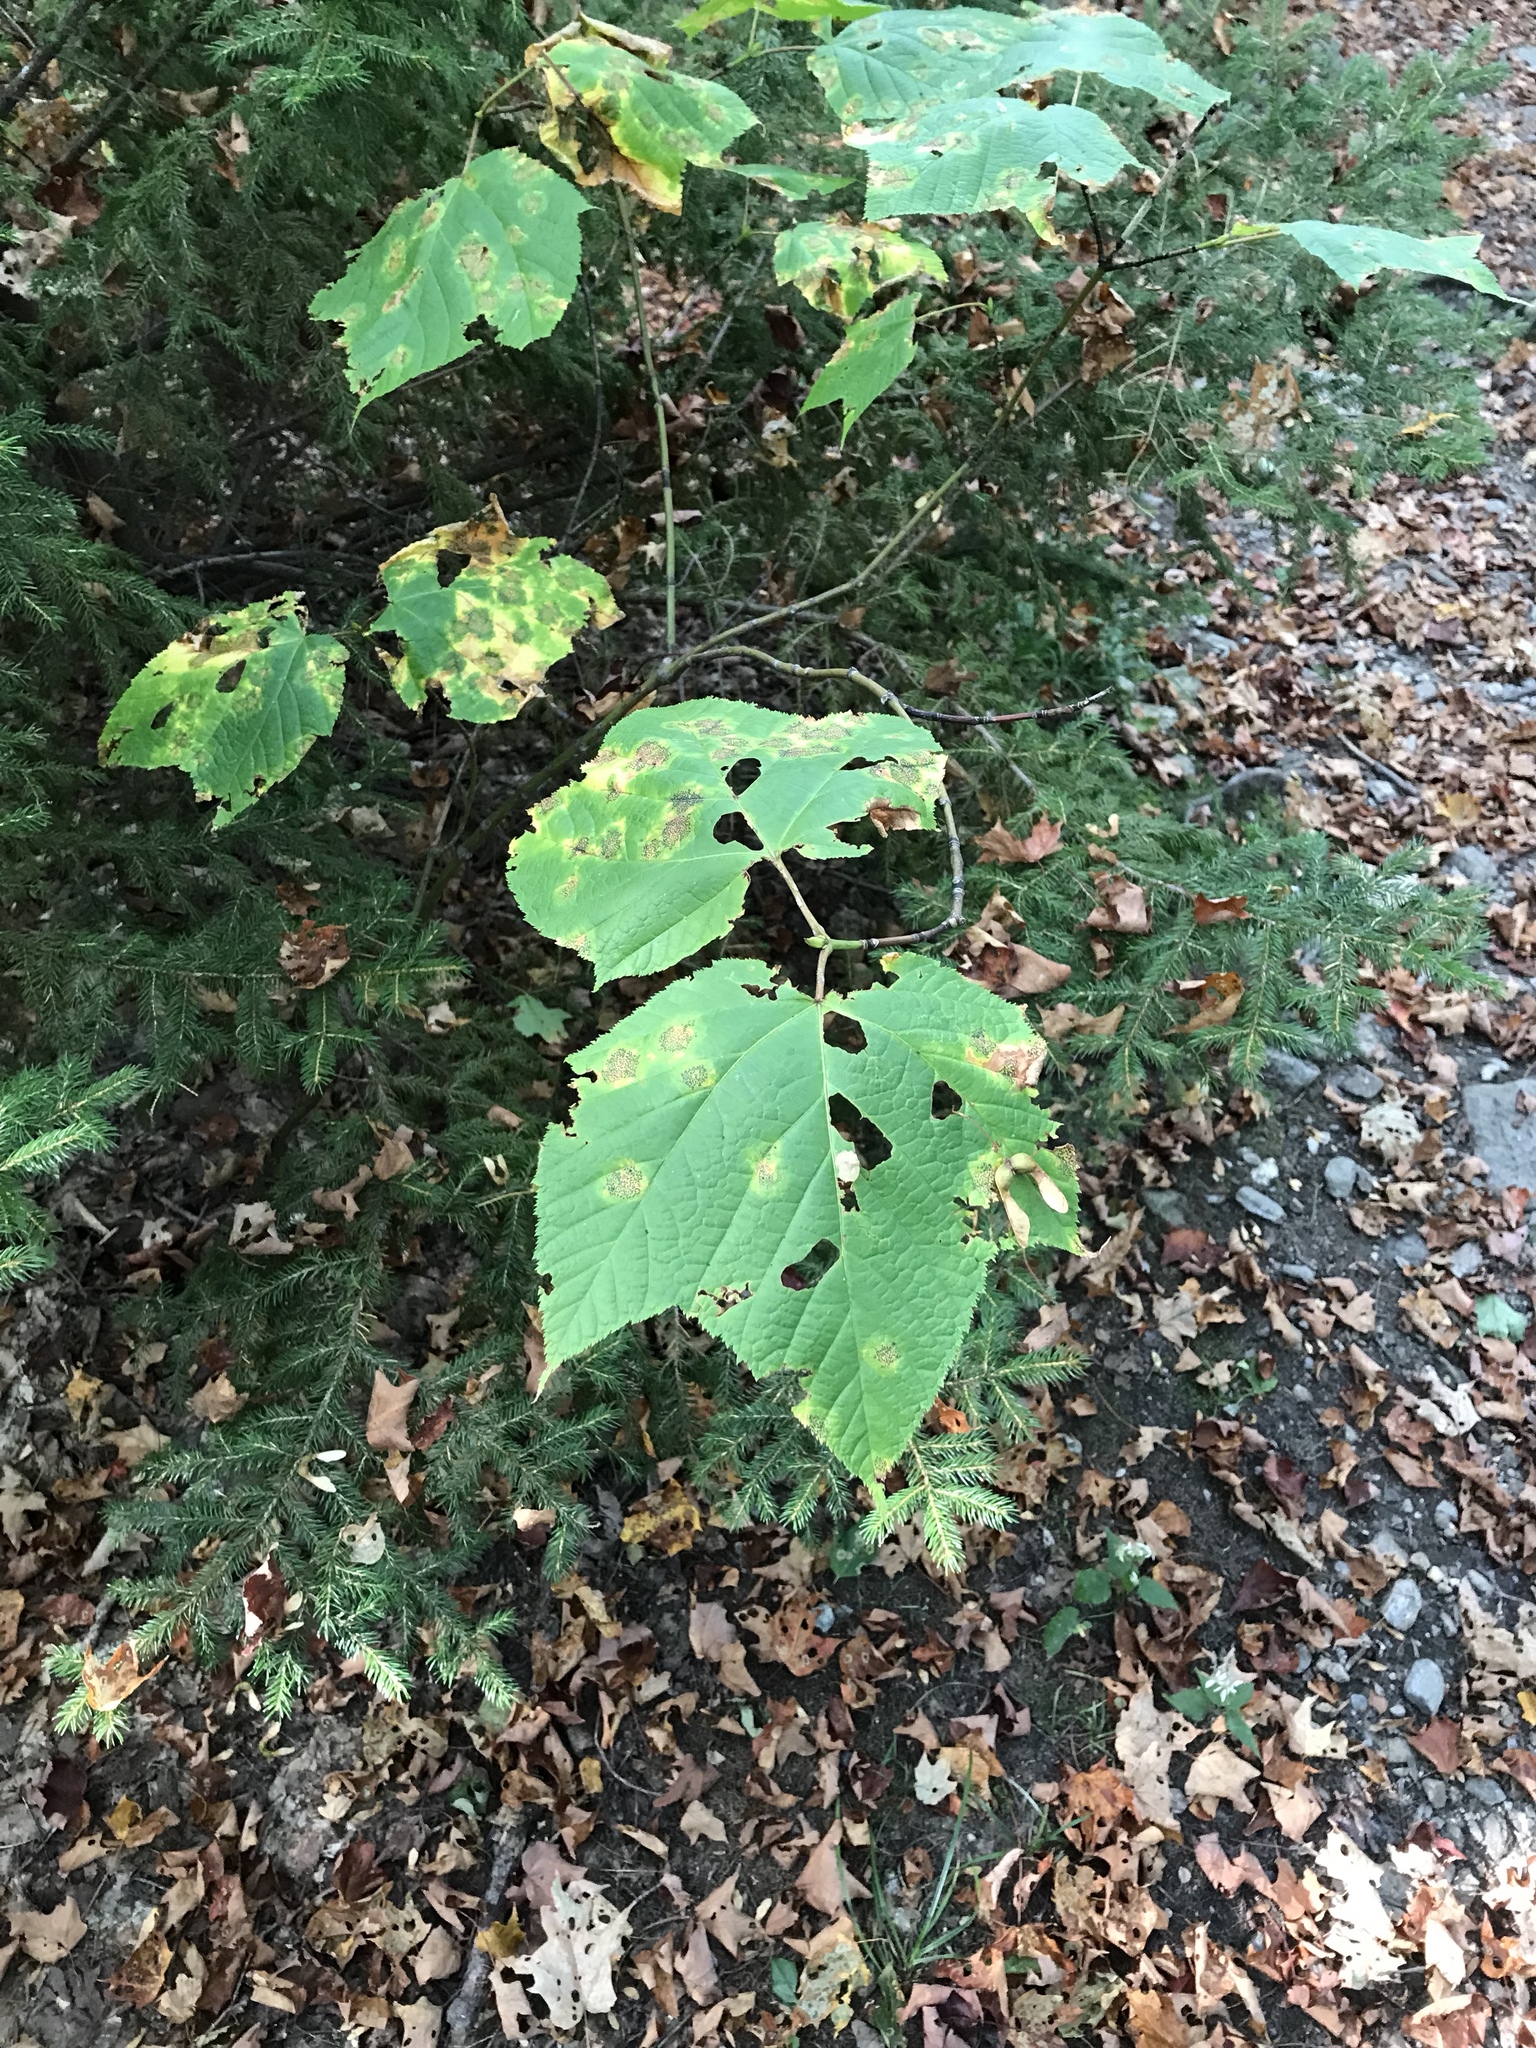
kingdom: Plantae
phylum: Tracheophyta
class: Magnoliopsida
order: Sapindales
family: Sapindaceae
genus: Acer
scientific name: Acer pensylvanicum
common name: Moosewood
